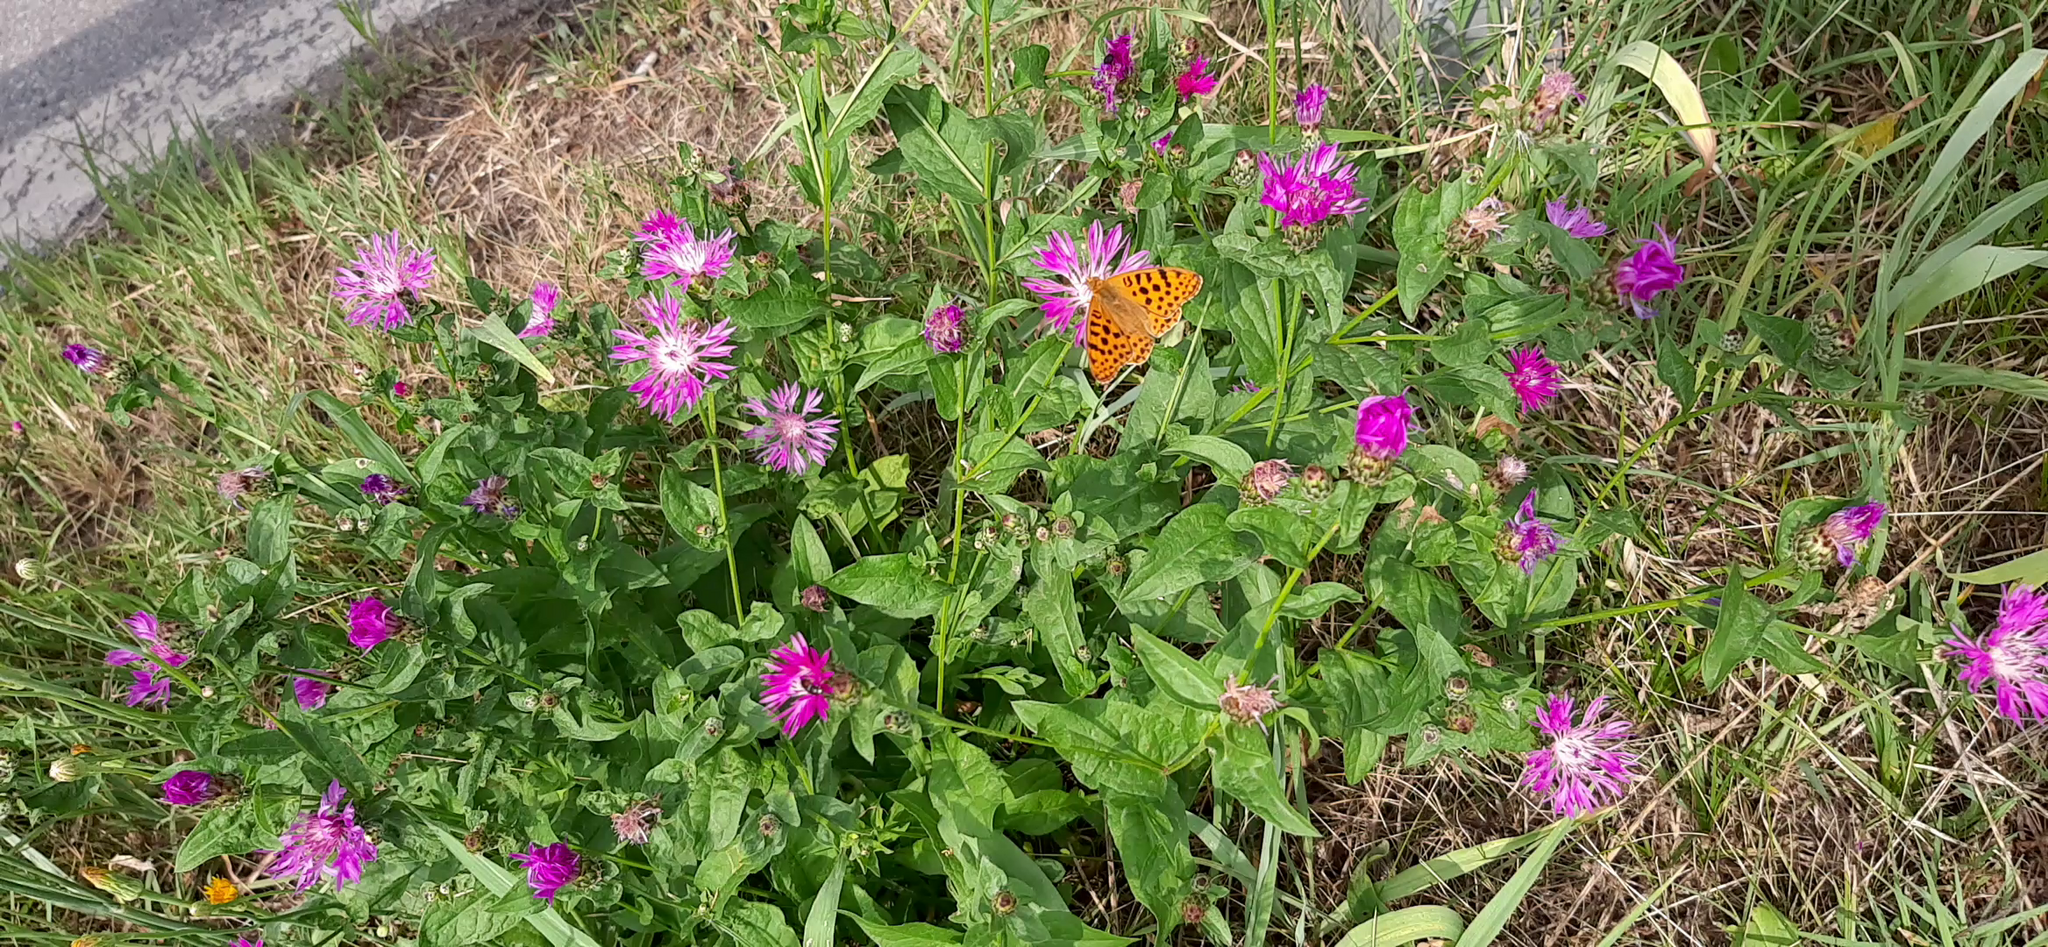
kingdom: Animalia
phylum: Arthropoda
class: Insecta
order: Lepidoptera
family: Nymphalidae
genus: Issoria
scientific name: Issoria lathonia
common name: Queen of spain fritillary
